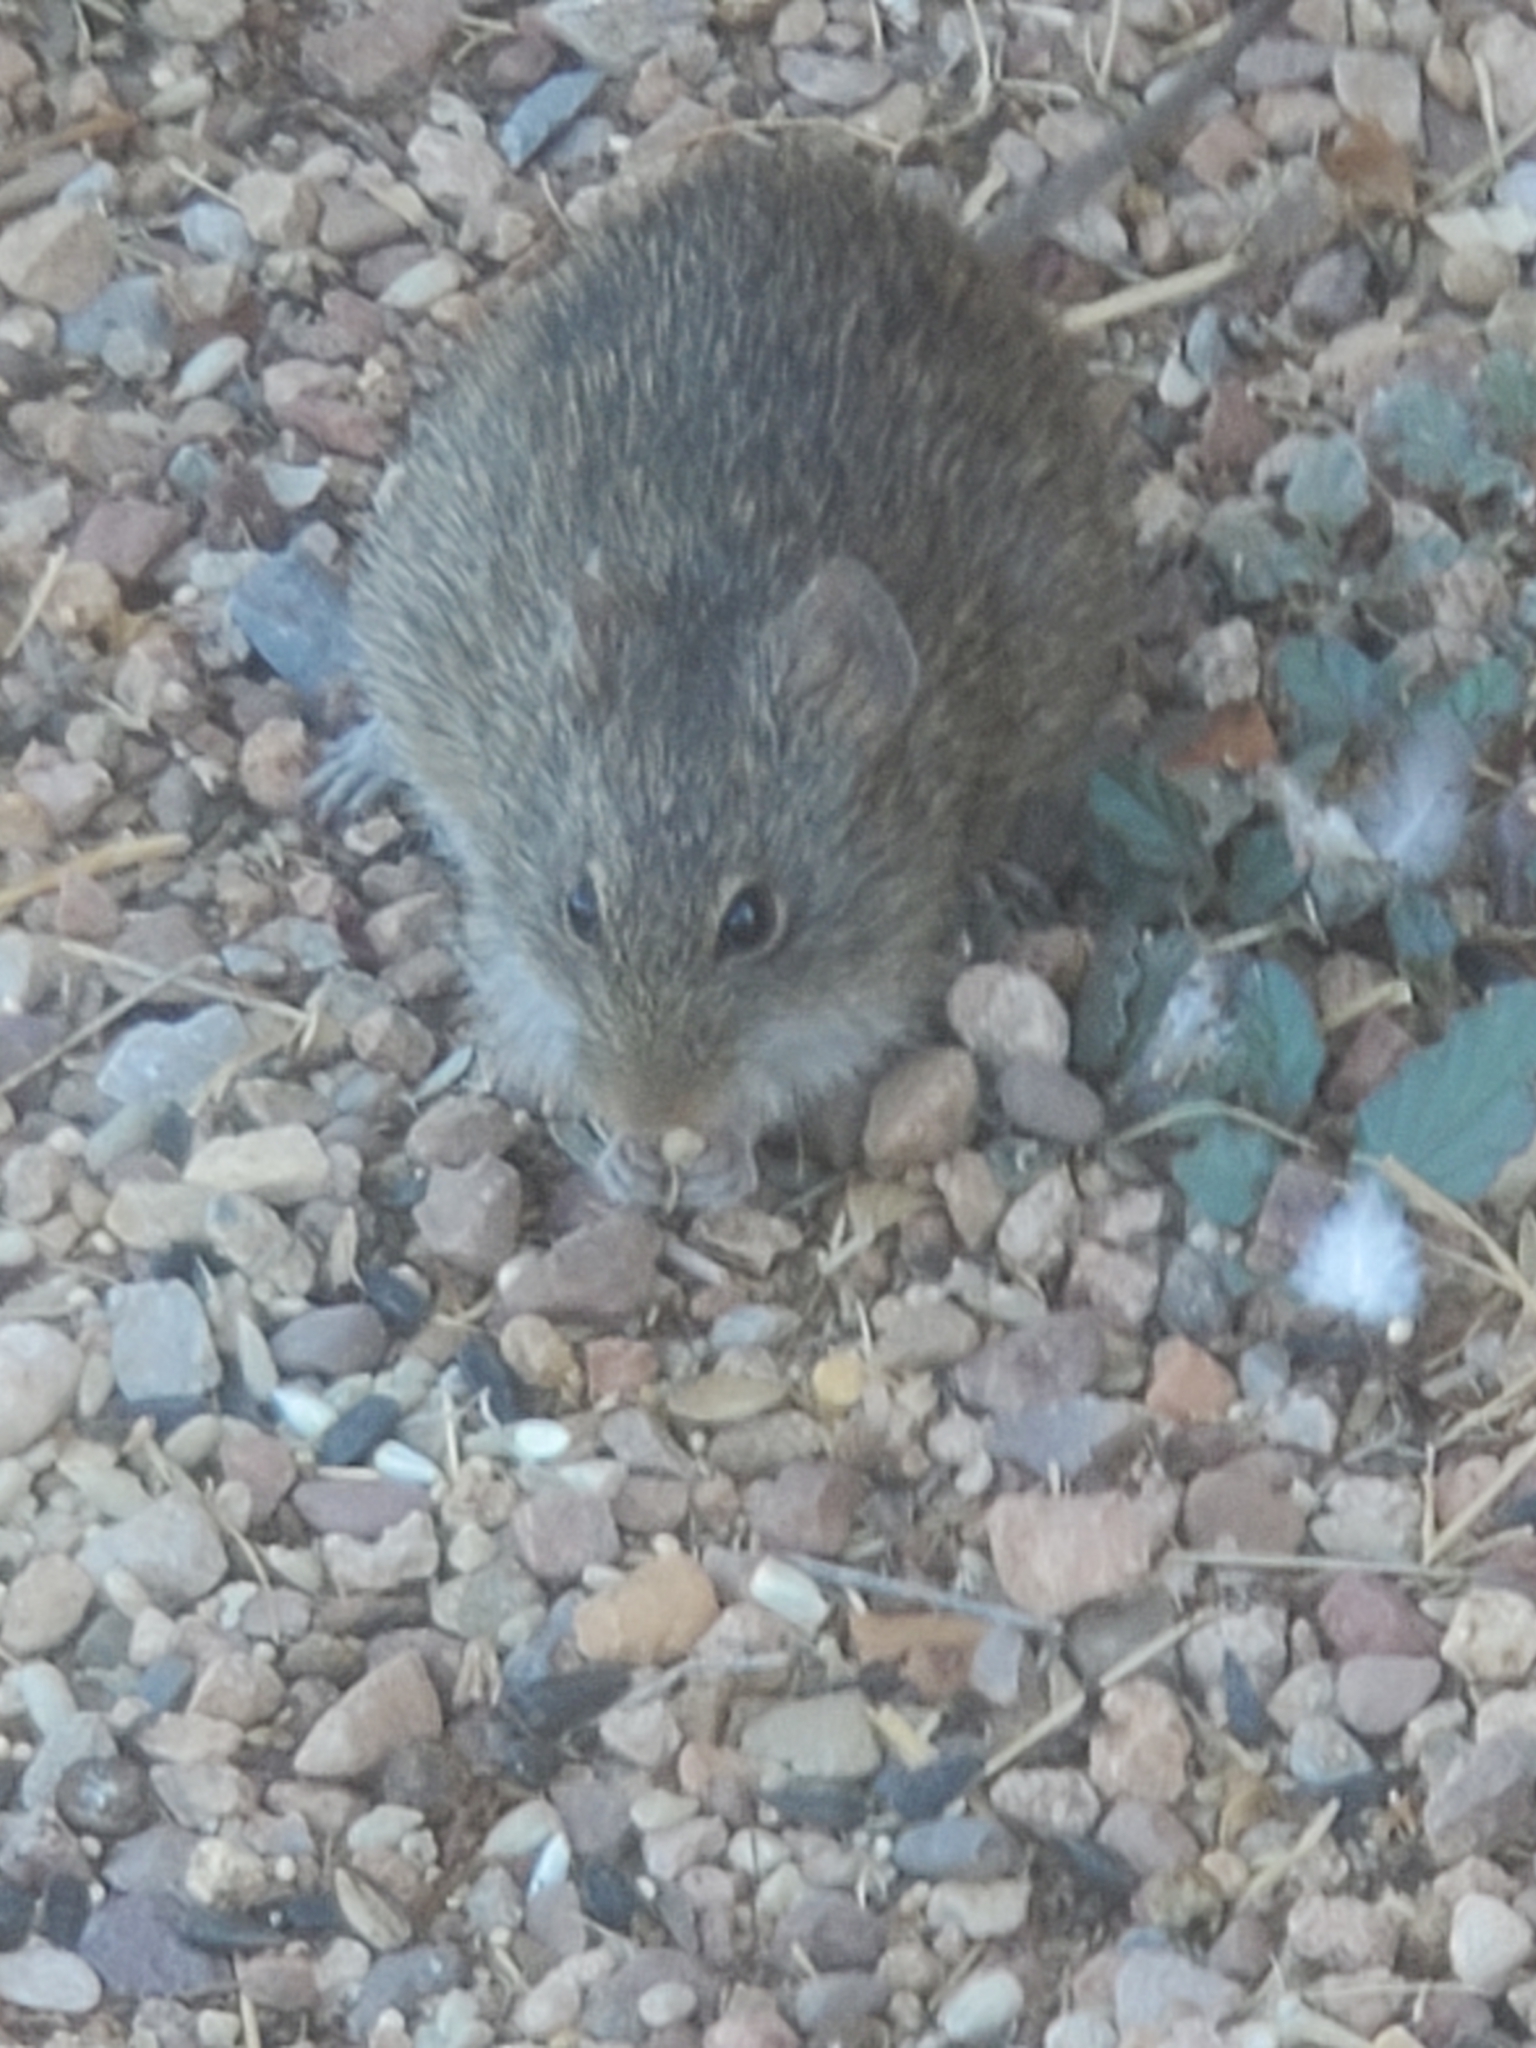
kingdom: Animalia
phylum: Chordata
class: Mammalia
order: Rodentia
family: Cricetidae
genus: Sigmodon
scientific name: Sigmodon arizonae
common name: Arizona cotton rat
